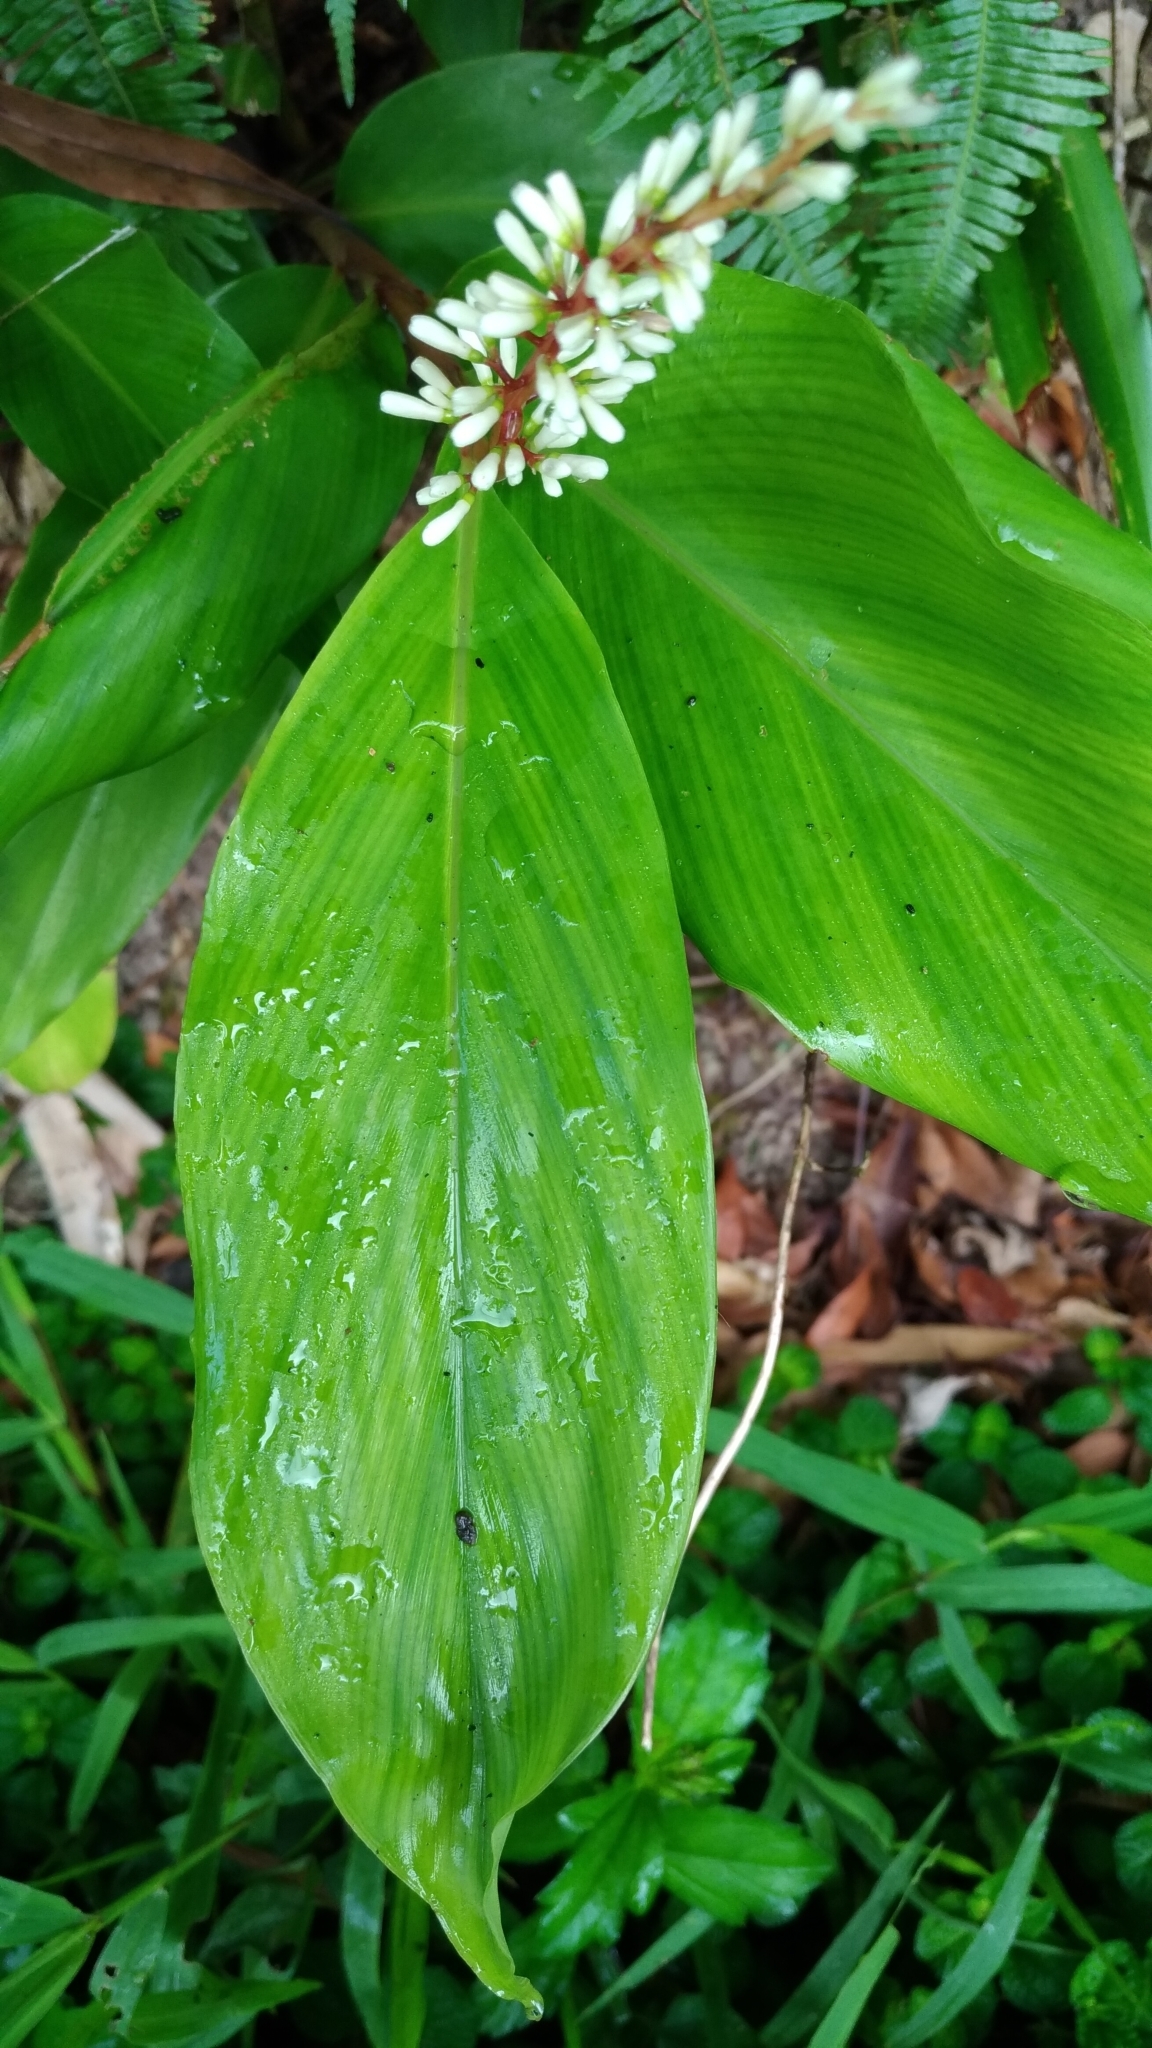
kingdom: Plantae
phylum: Tracheophyta
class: Liliopsida
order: Zingiberales
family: Zingiberaceae
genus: Alpinia
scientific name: Alpinia intermedia
